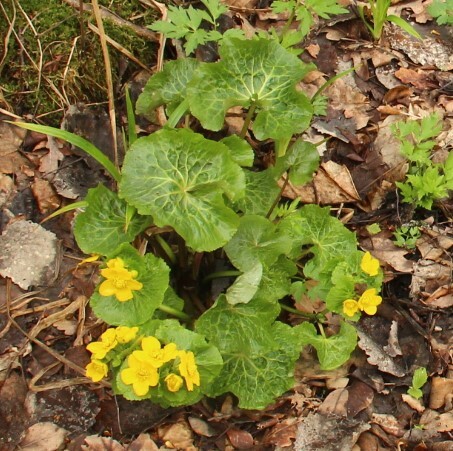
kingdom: Plantae
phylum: Tracheophyta
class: Magnoliopsida
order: Ranunculales
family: Ranunculaceae
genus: Caltha
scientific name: Caltha palustris
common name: Marsh marigold
